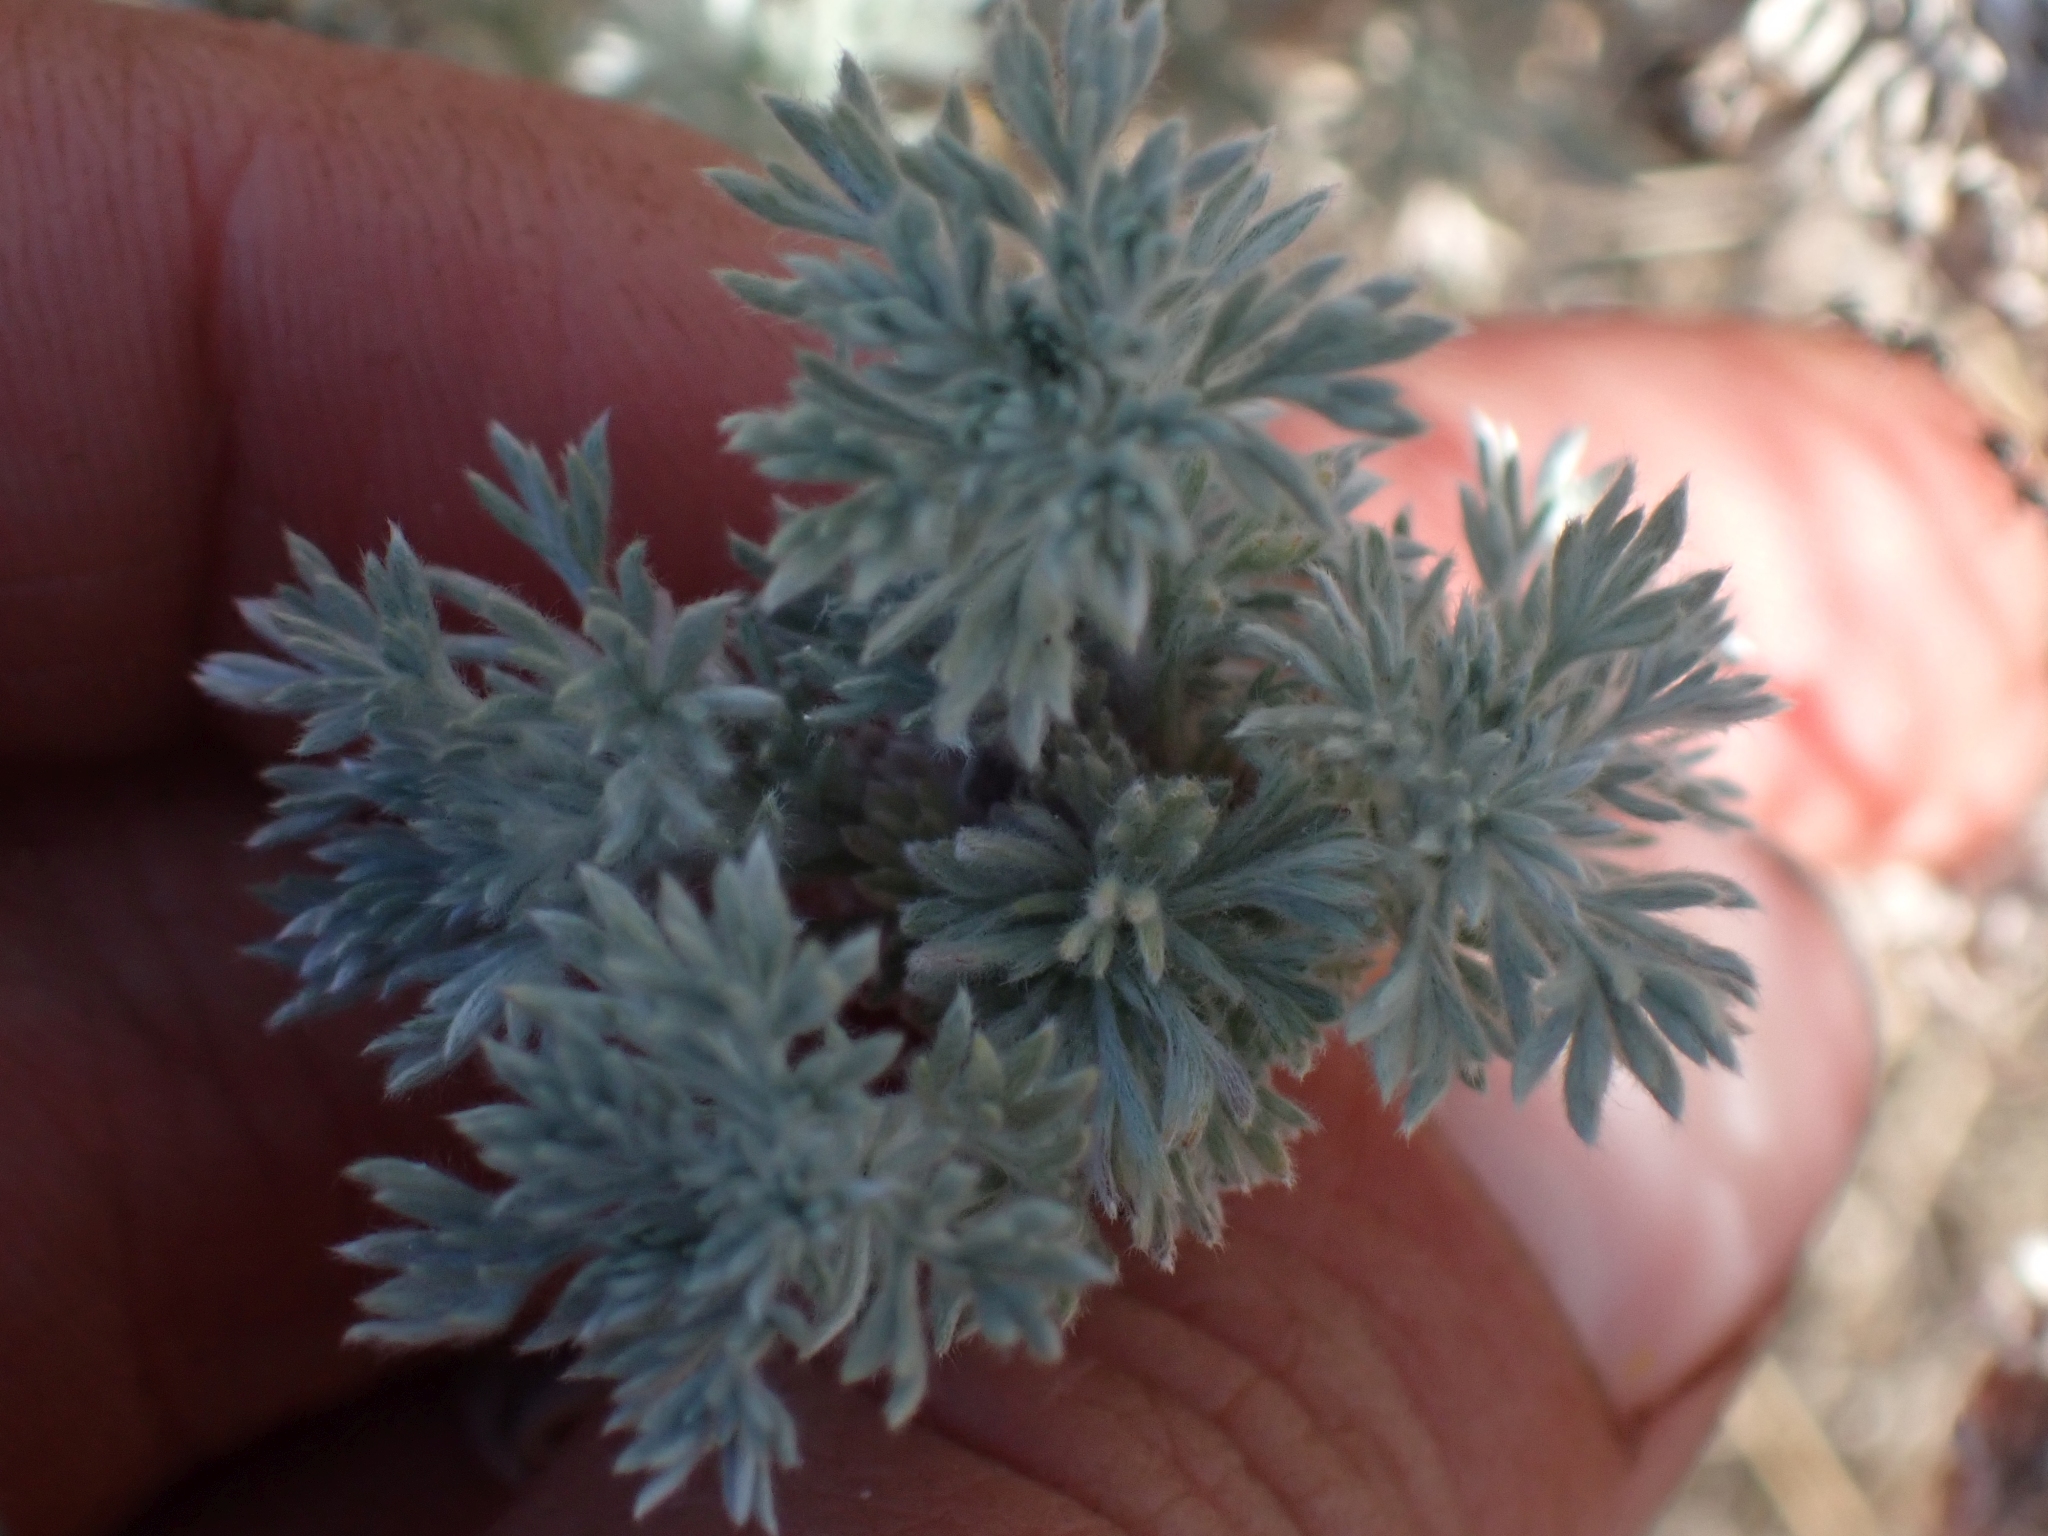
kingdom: Plantae
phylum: Tracheophyta
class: Magnoliopsida
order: Asterales
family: Asteraceae
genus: Artemisia
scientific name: Artemisia frigida
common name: Prairie sagewort
